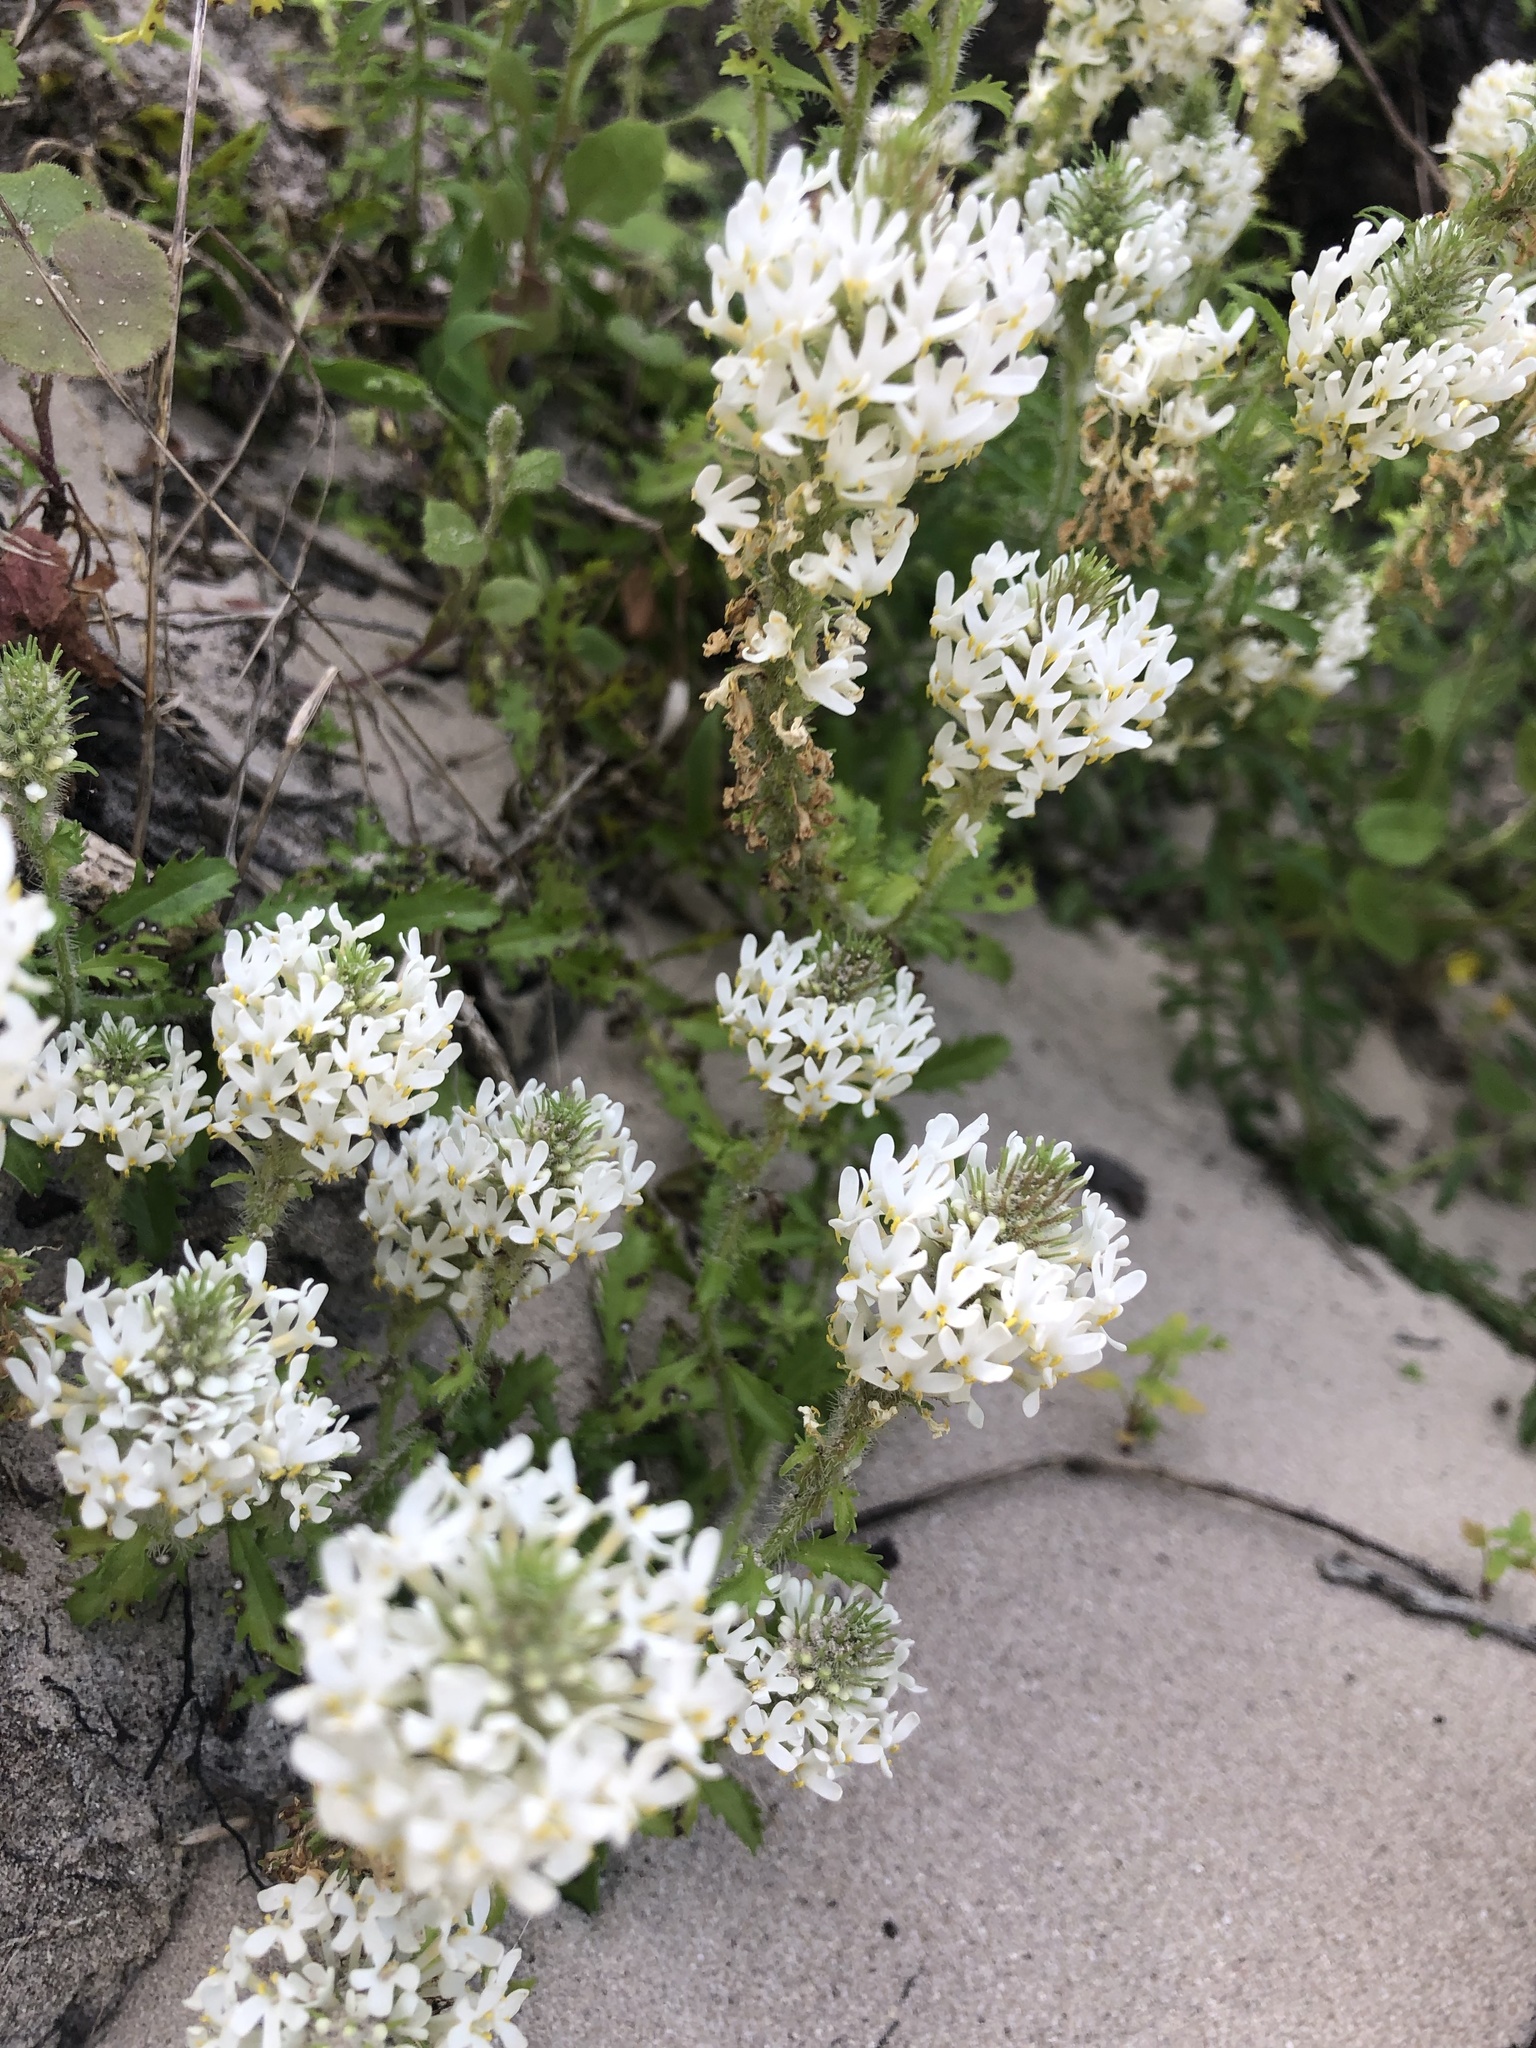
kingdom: Plantae
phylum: Tracheophyta
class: Magnoliopsida
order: Lamiales
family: Scrophulariaceae
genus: Dischisma
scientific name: Dischisma ciliatum
